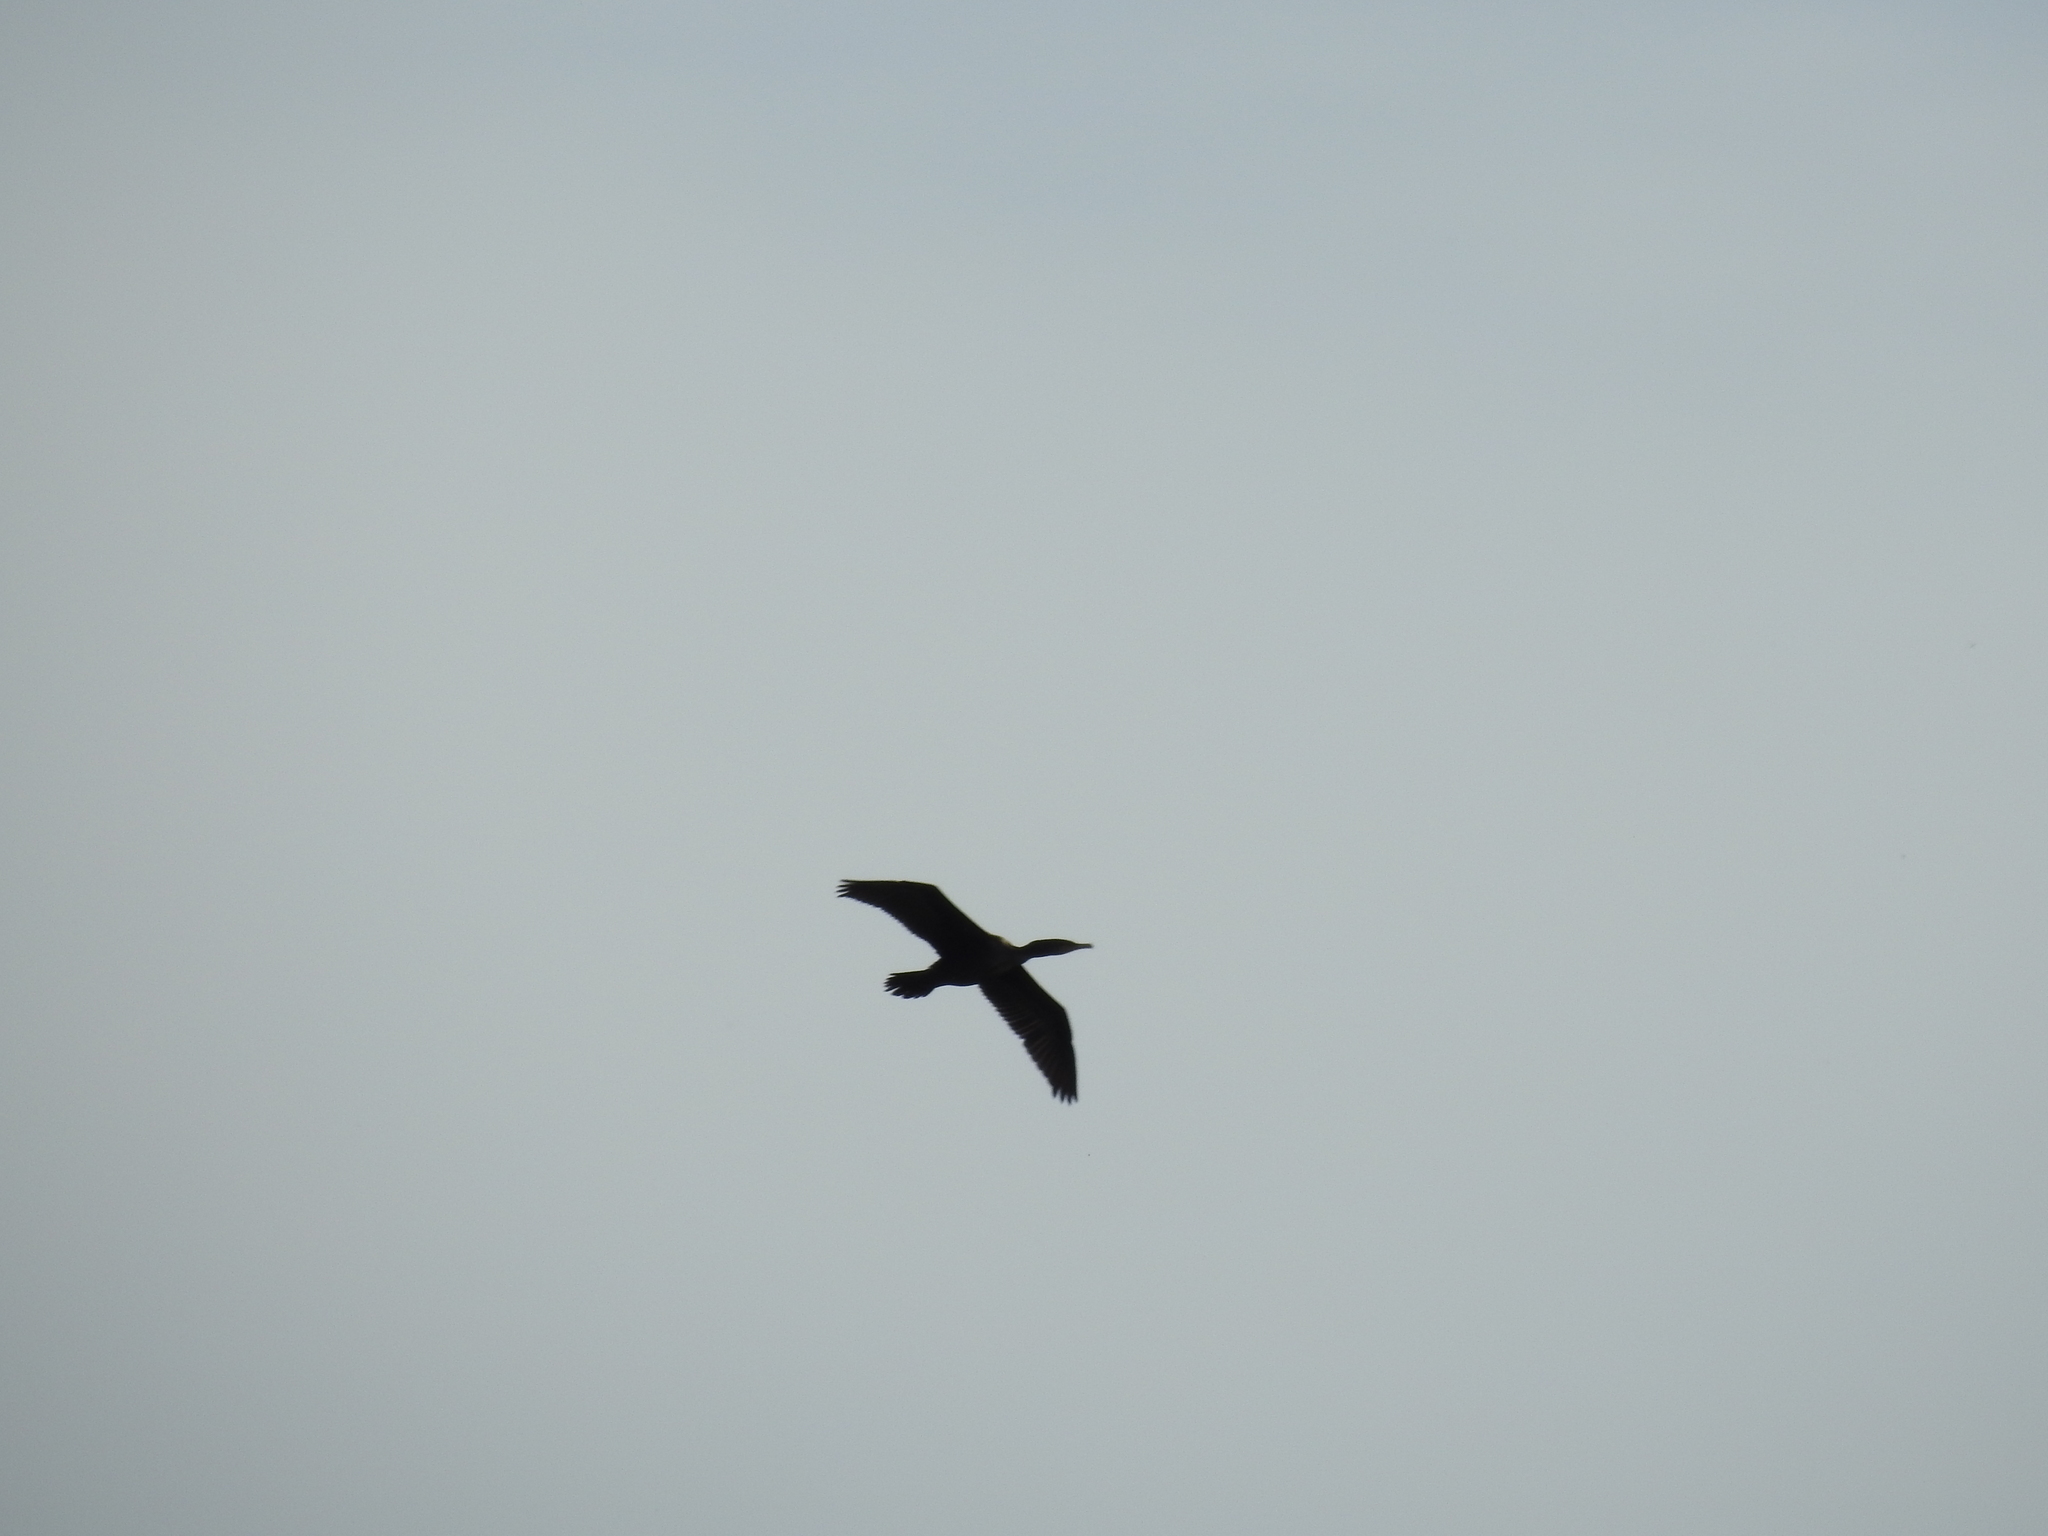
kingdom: Animalia
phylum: Chordata
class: Aves
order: Suliformes
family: Phalacrocoracidae
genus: Phalacrocorax
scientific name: Phalacrocorax auritus
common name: Double-crested cormorant
